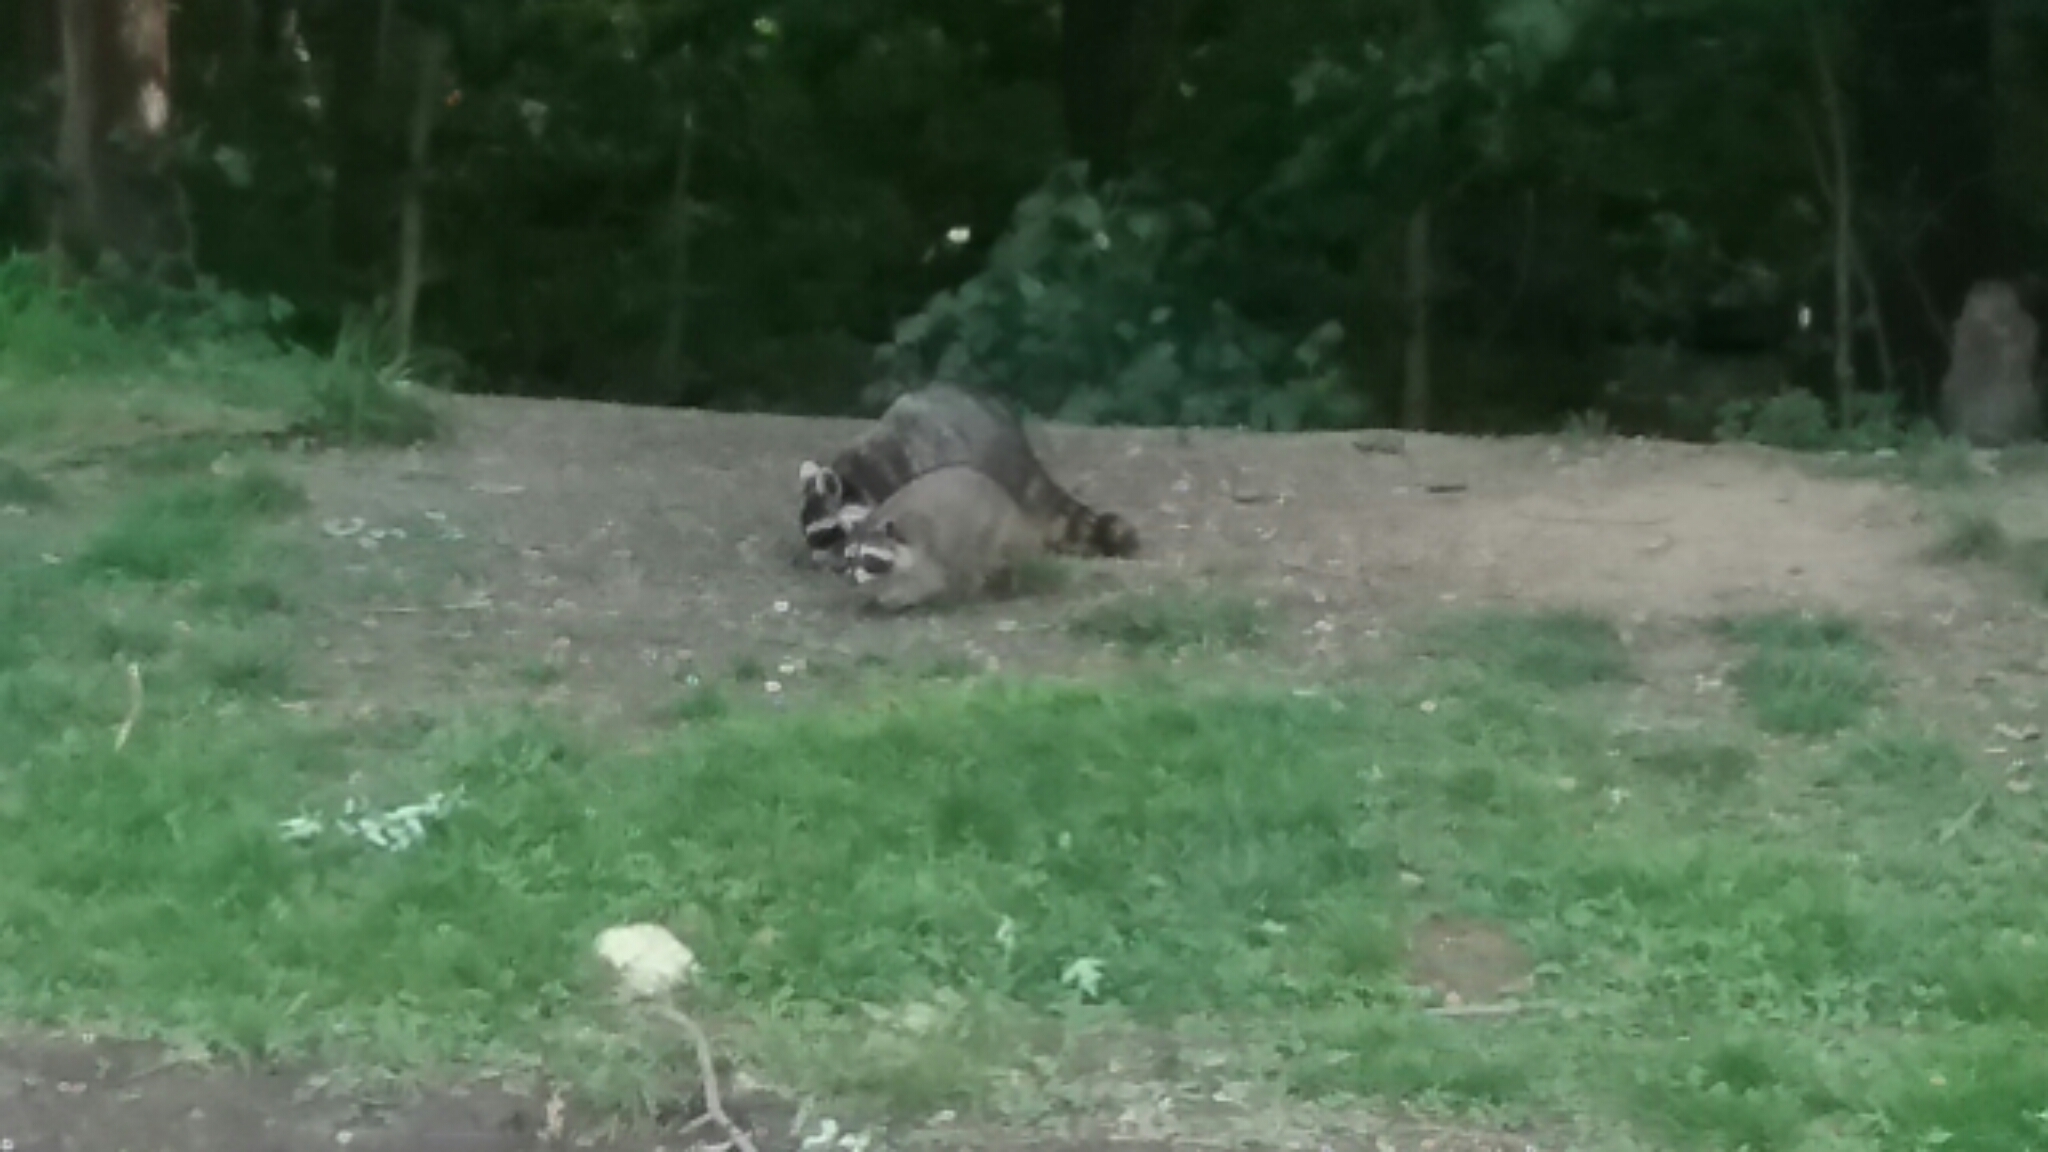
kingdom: Animalia
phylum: Chordata
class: Mammalia
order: Carnivora
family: Procyonidae
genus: Procyon
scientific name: Procyon lotor
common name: Raccoon
